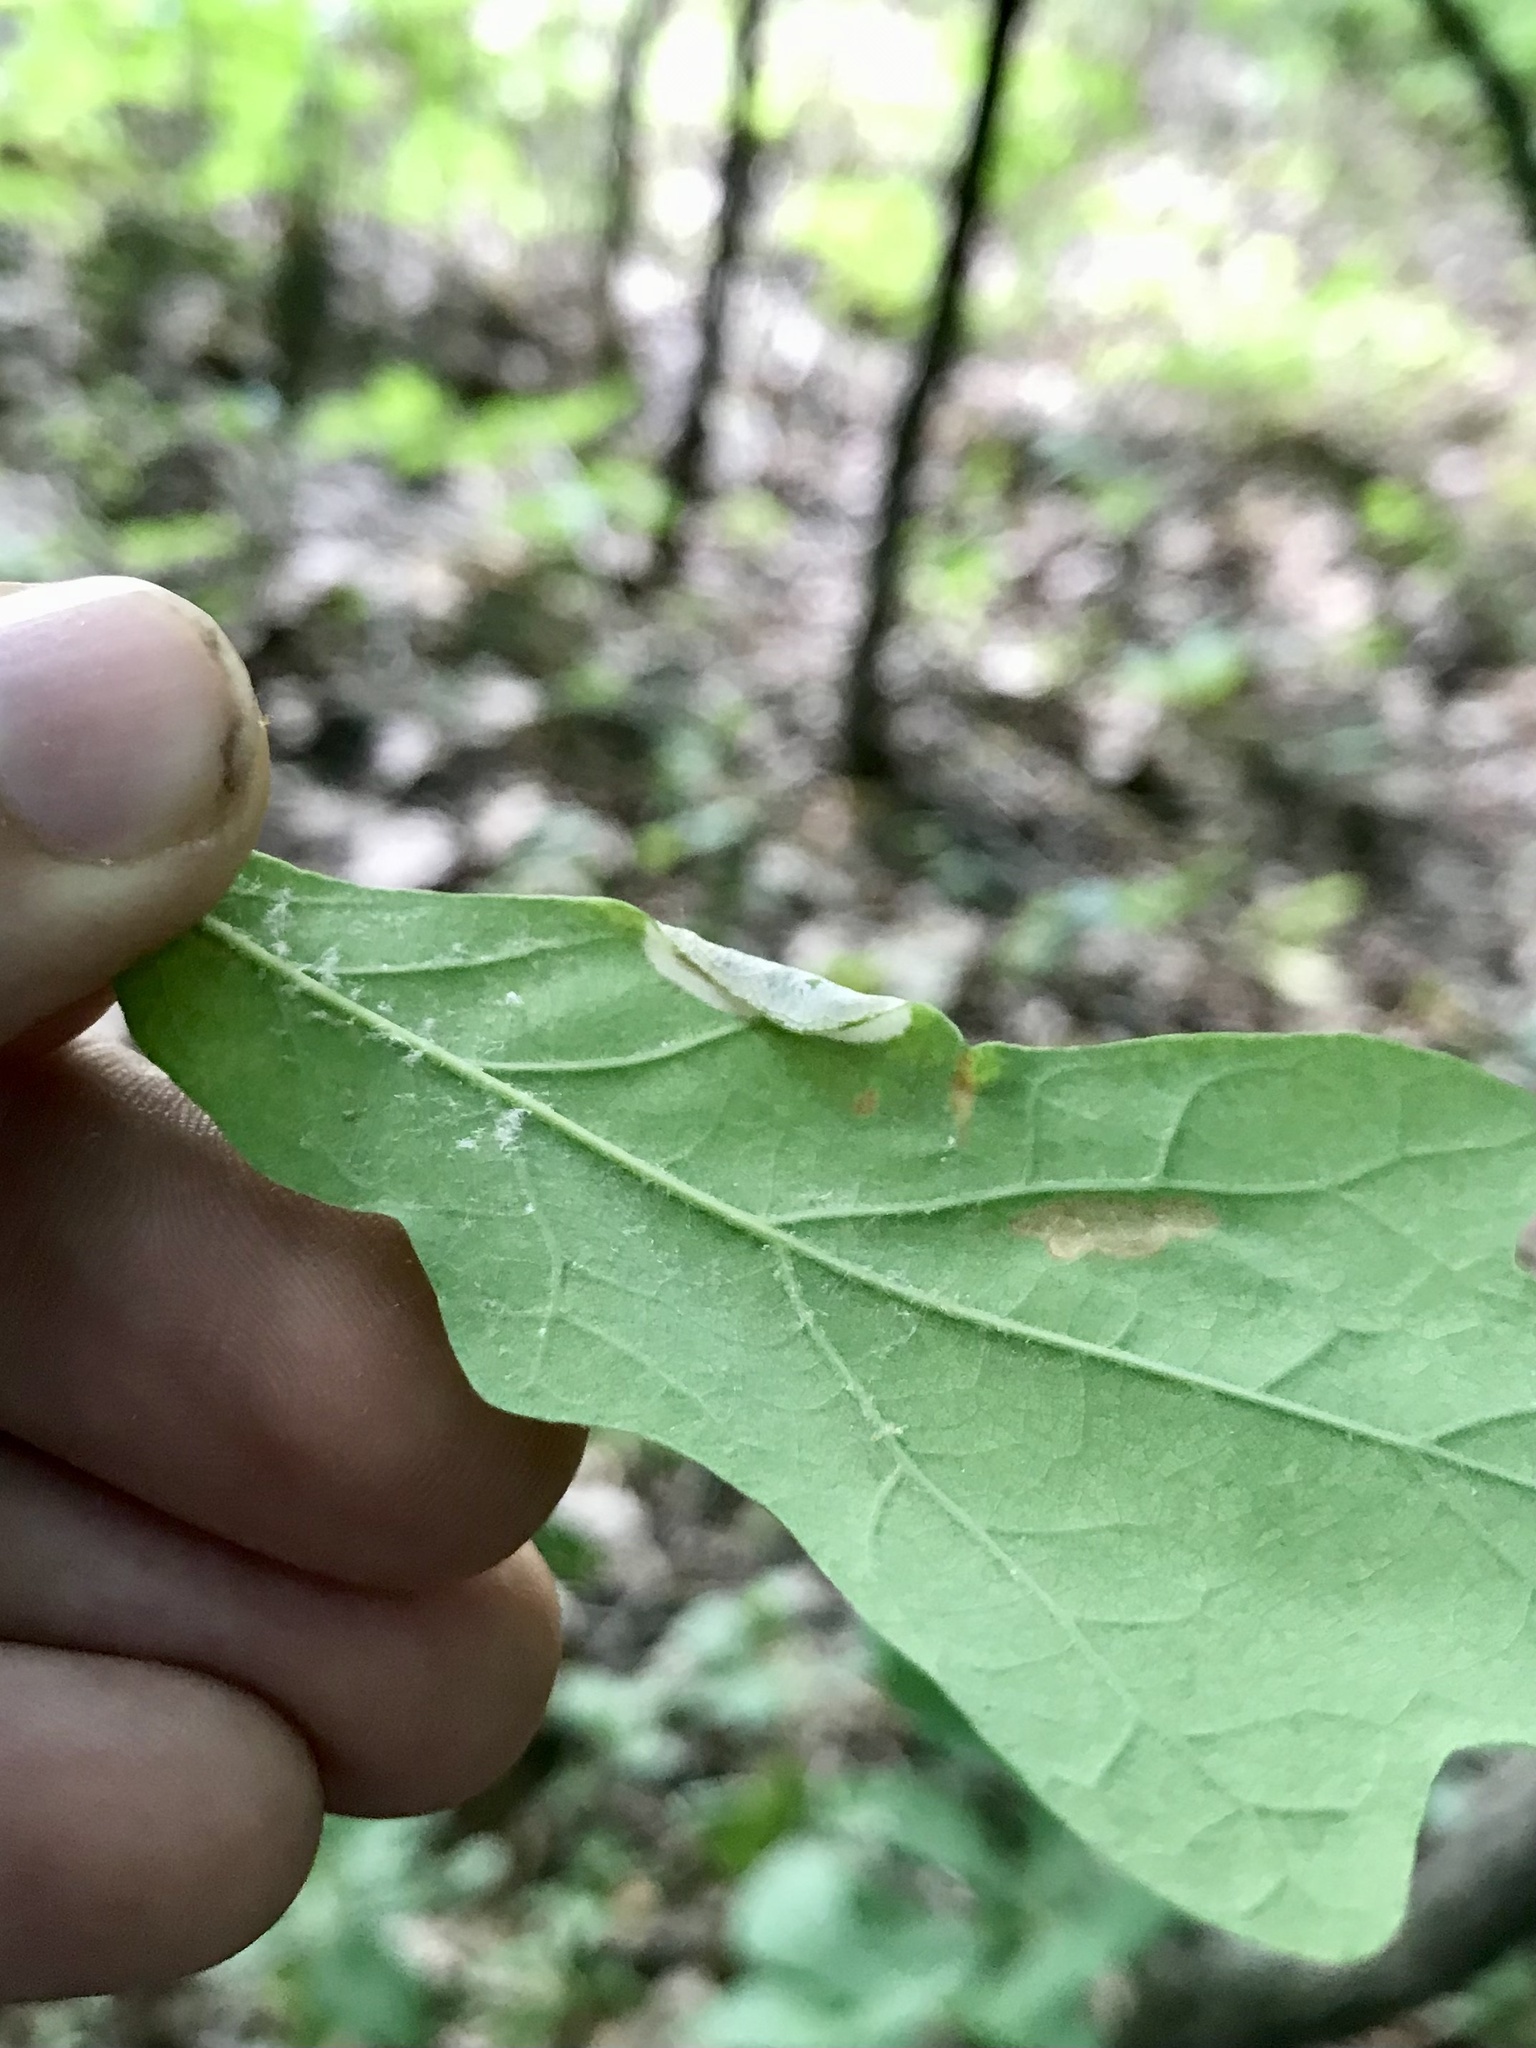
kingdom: Animalia
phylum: Arthropoda
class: Insecta
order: Lepidoptera
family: Gracillariidae
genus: Phyllonorycter
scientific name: Phyllonorycter argentifimbriella
